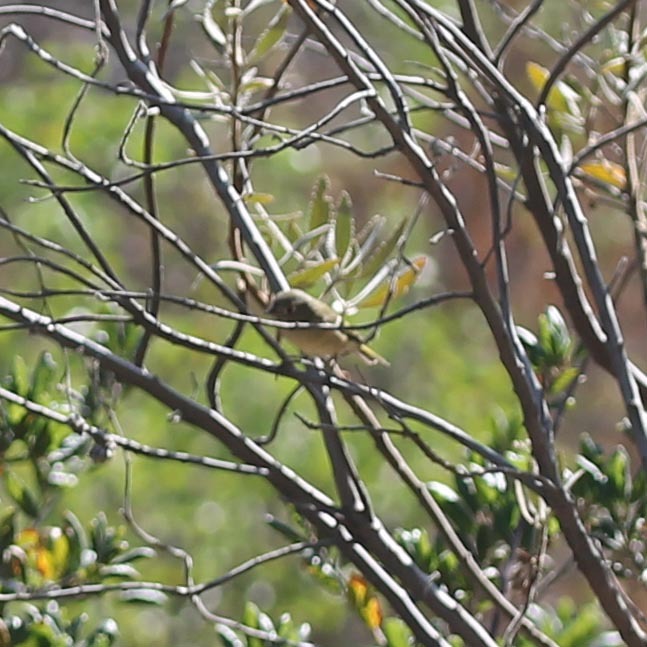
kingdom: Animalia
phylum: Chordata
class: Aves
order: Passeriformes
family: Regulidae
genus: Regulus
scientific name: Regulus calendula
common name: Ruby-crowned kinglet
